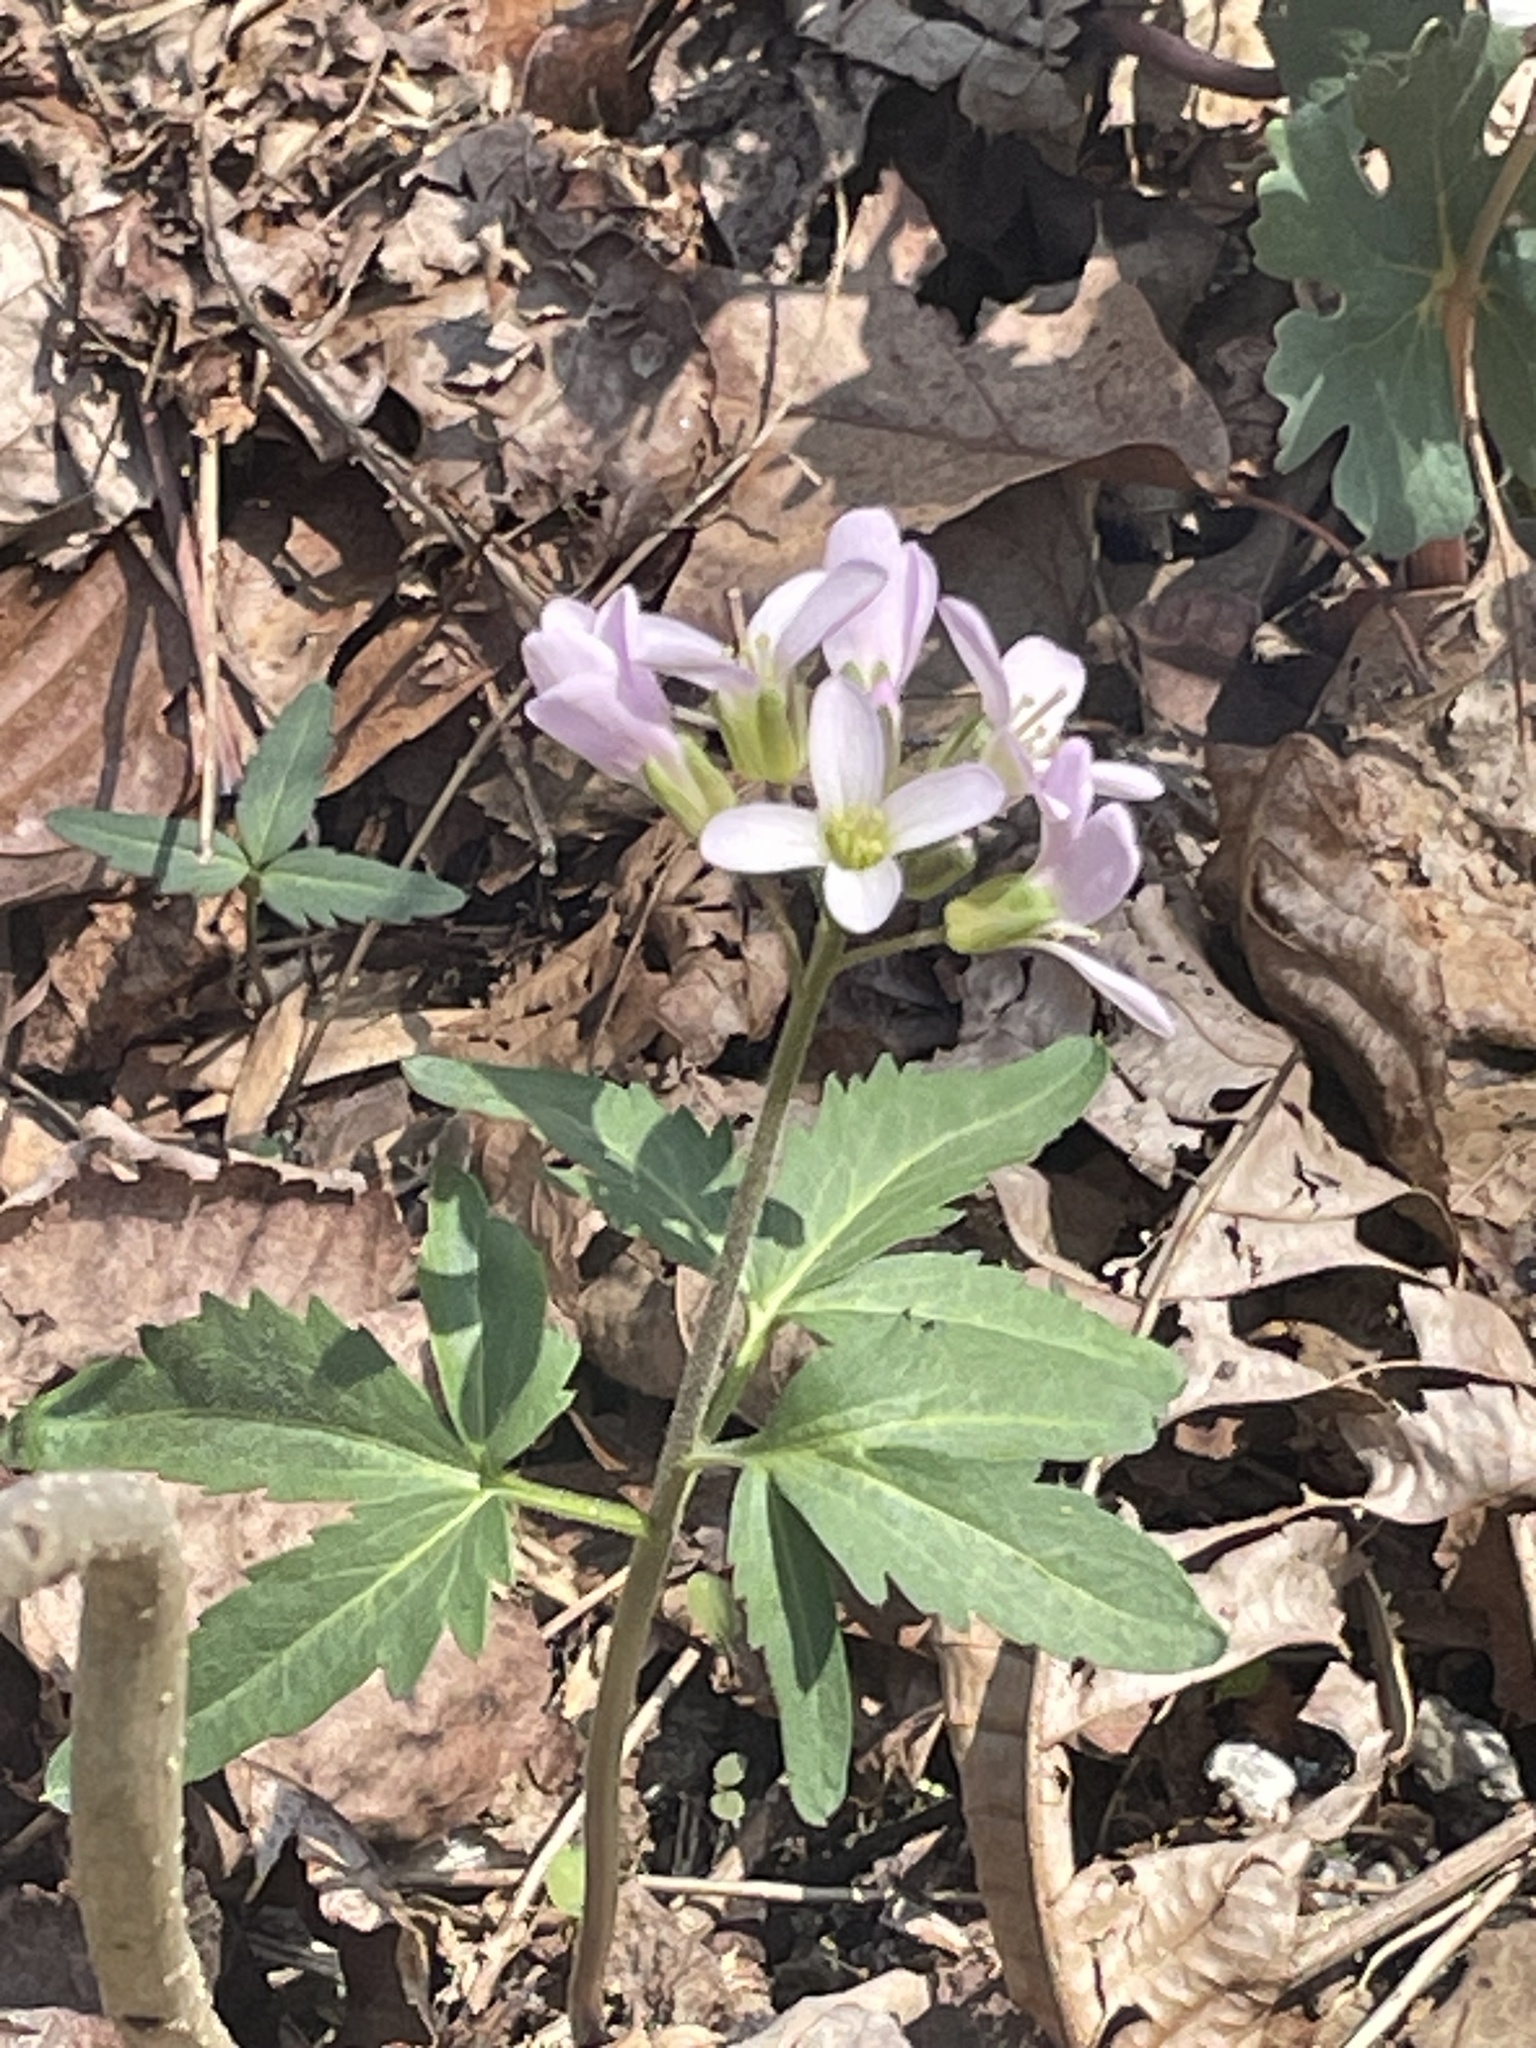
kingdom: Plantae
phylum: Tracheophyta
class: Magnoliopsida
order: Brassicales
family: Brassicaceae
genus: Cardamine
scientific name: Cardamine concatenata
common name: Cut-leaf toothcup
